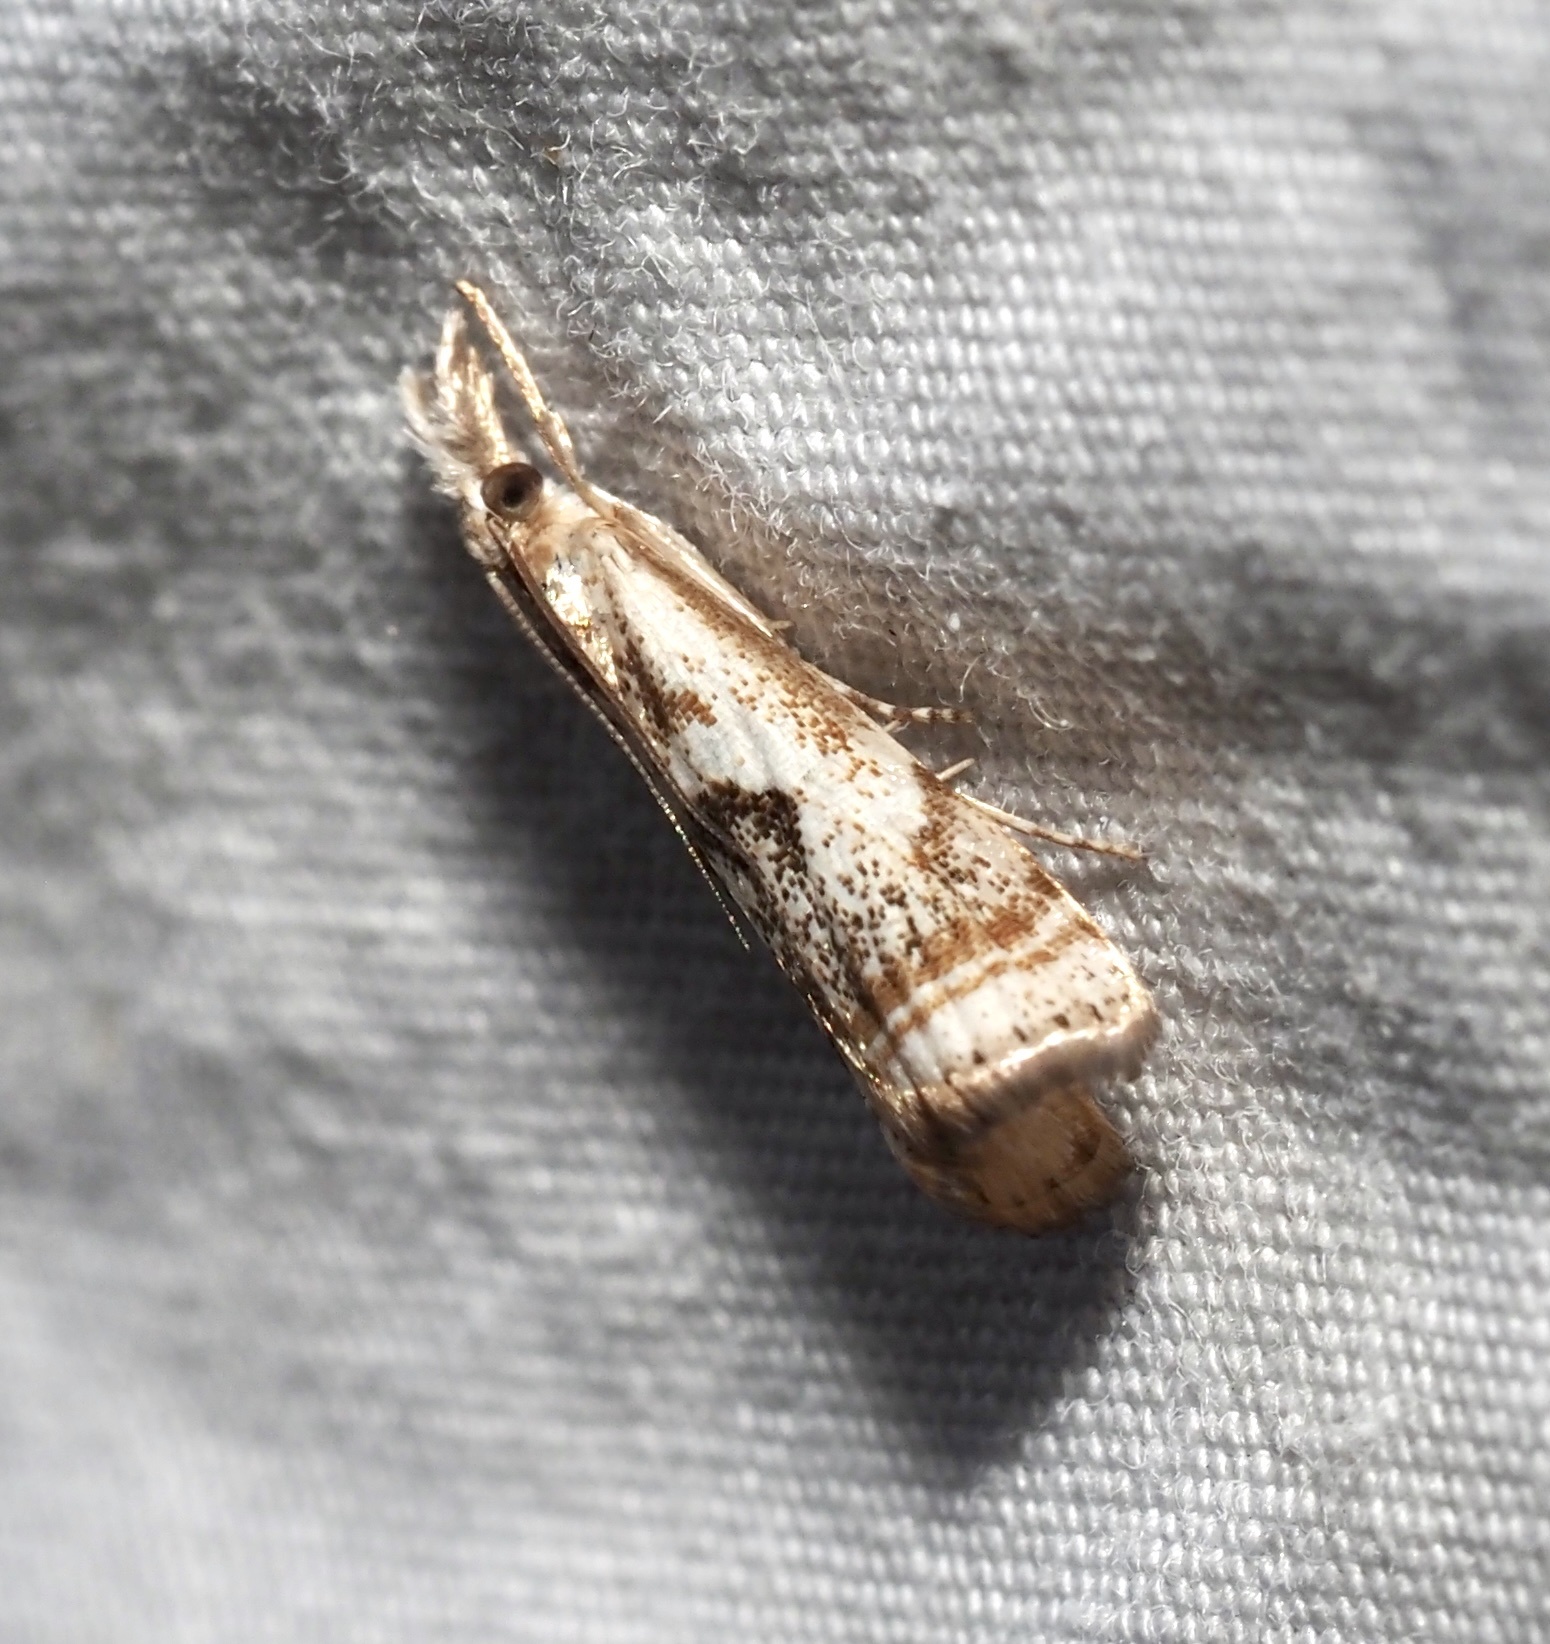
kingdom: Animalia
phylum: Arthropoda
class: Insecta
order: Lepidoptera
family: Crambidae
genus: Microcrambus
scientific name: Microcrambus elegans
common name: Elegant grass-veneer
